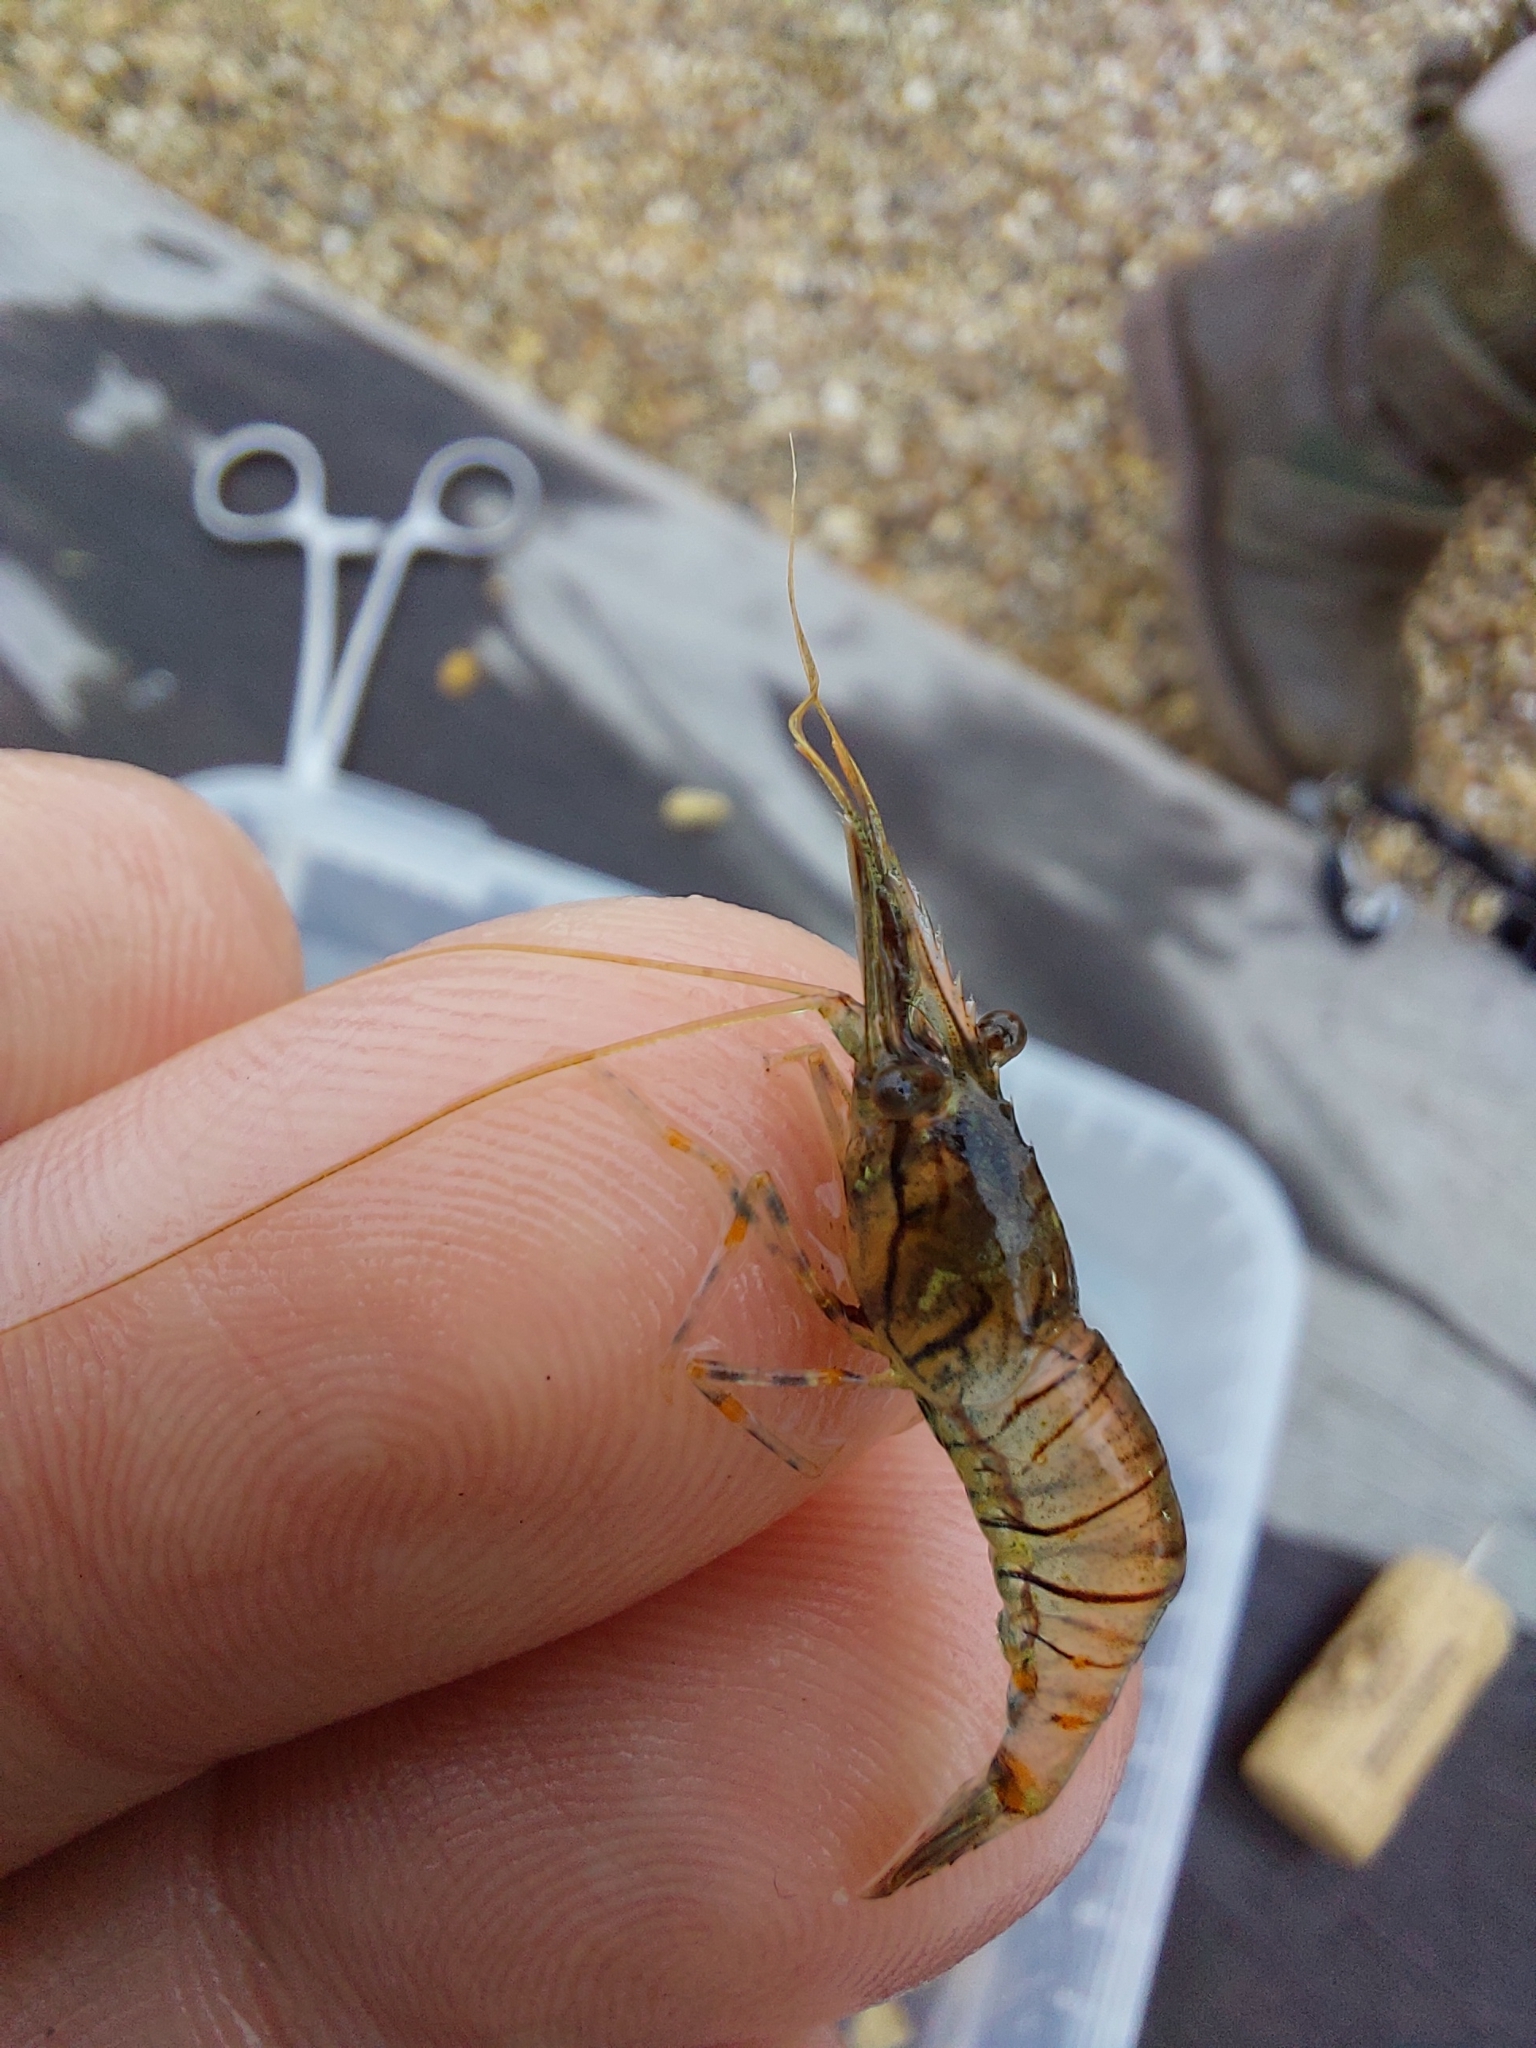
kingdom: Animalia
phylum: Arthropoda
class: Malacostraca
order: Decapoda
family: Palaemonidae
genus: Palaemon
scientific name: Palaemon elegans
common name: Grass prawm
